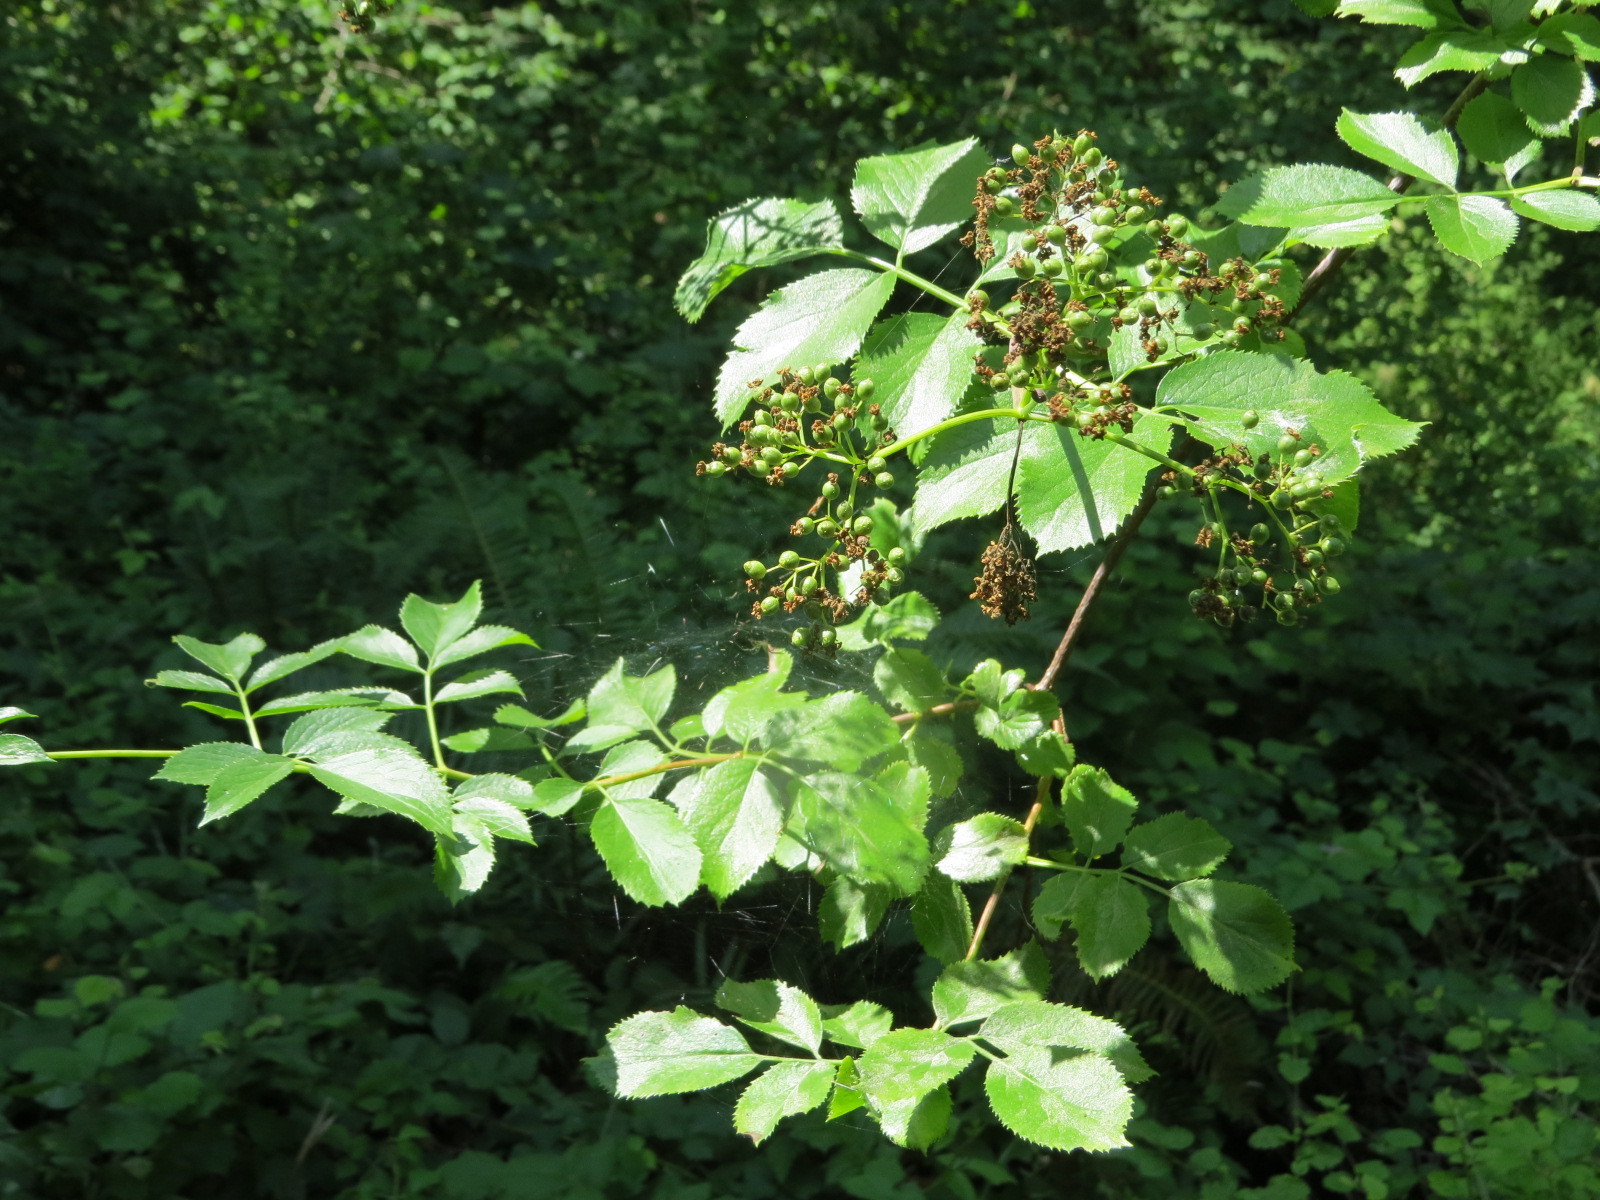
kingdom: Plantae
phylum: Tracheophyta
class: Magnoliopsida
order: Dipsacales
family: Viburnaceae
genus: Sambucus
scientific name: Sambucus cerulea
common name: Blue elder
